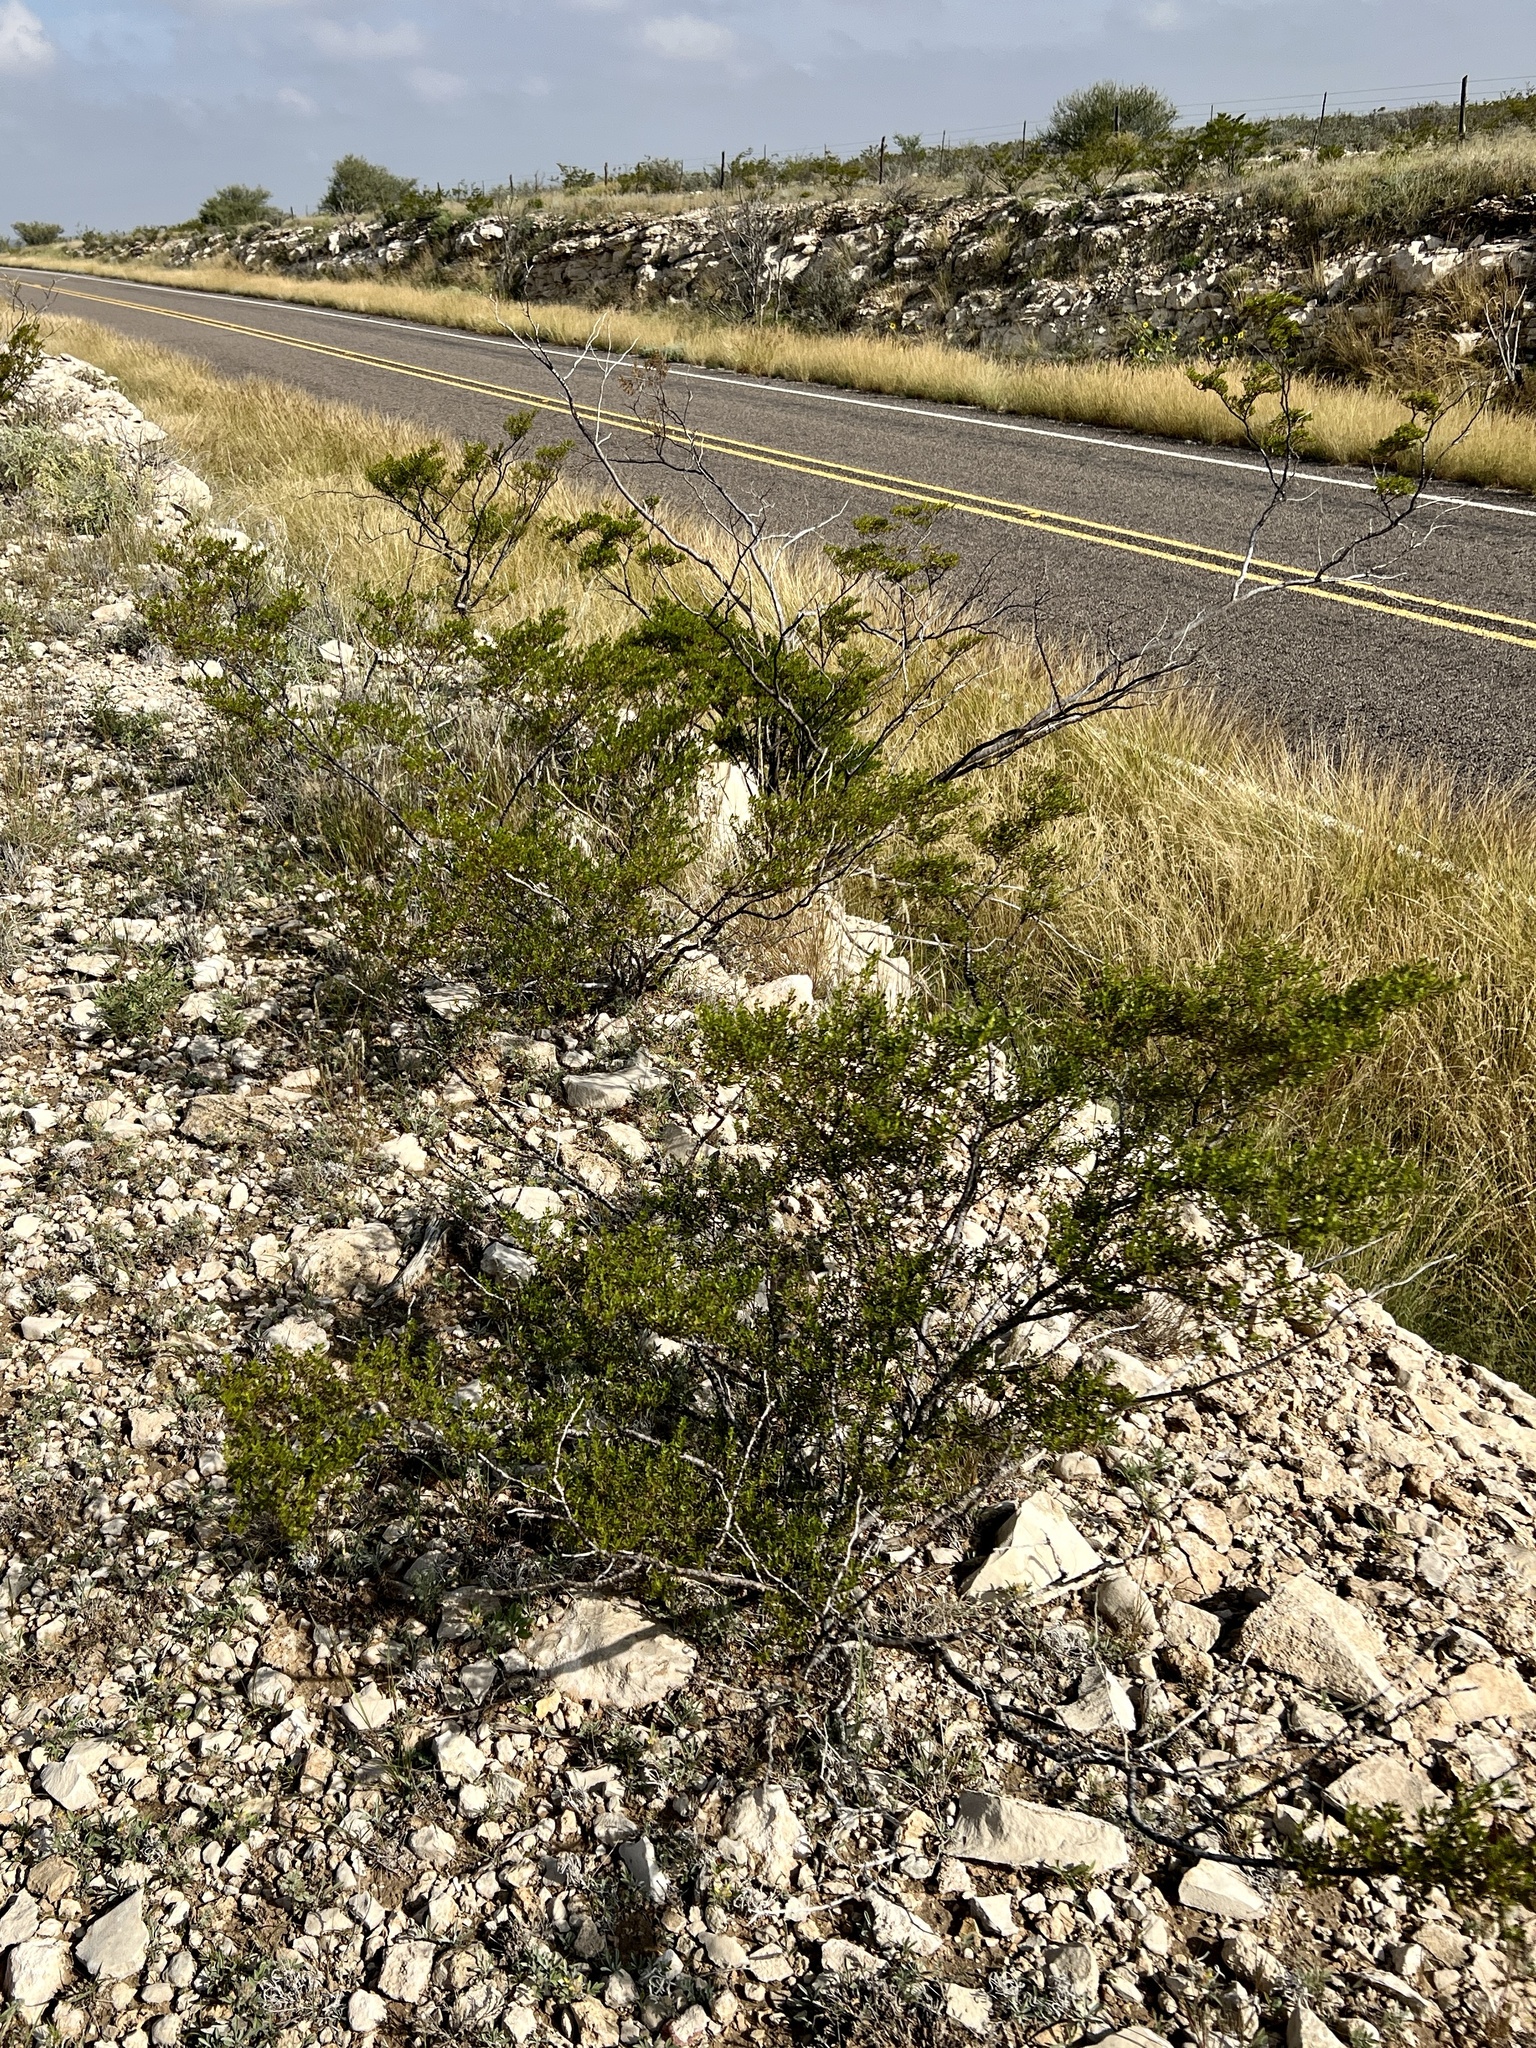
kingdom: Plantae
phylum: Tracheophyta
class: Magnoliopsida
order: Zygophyllales
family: Zygophyllaceae
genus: Larrea
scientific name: Larrea tridentata
